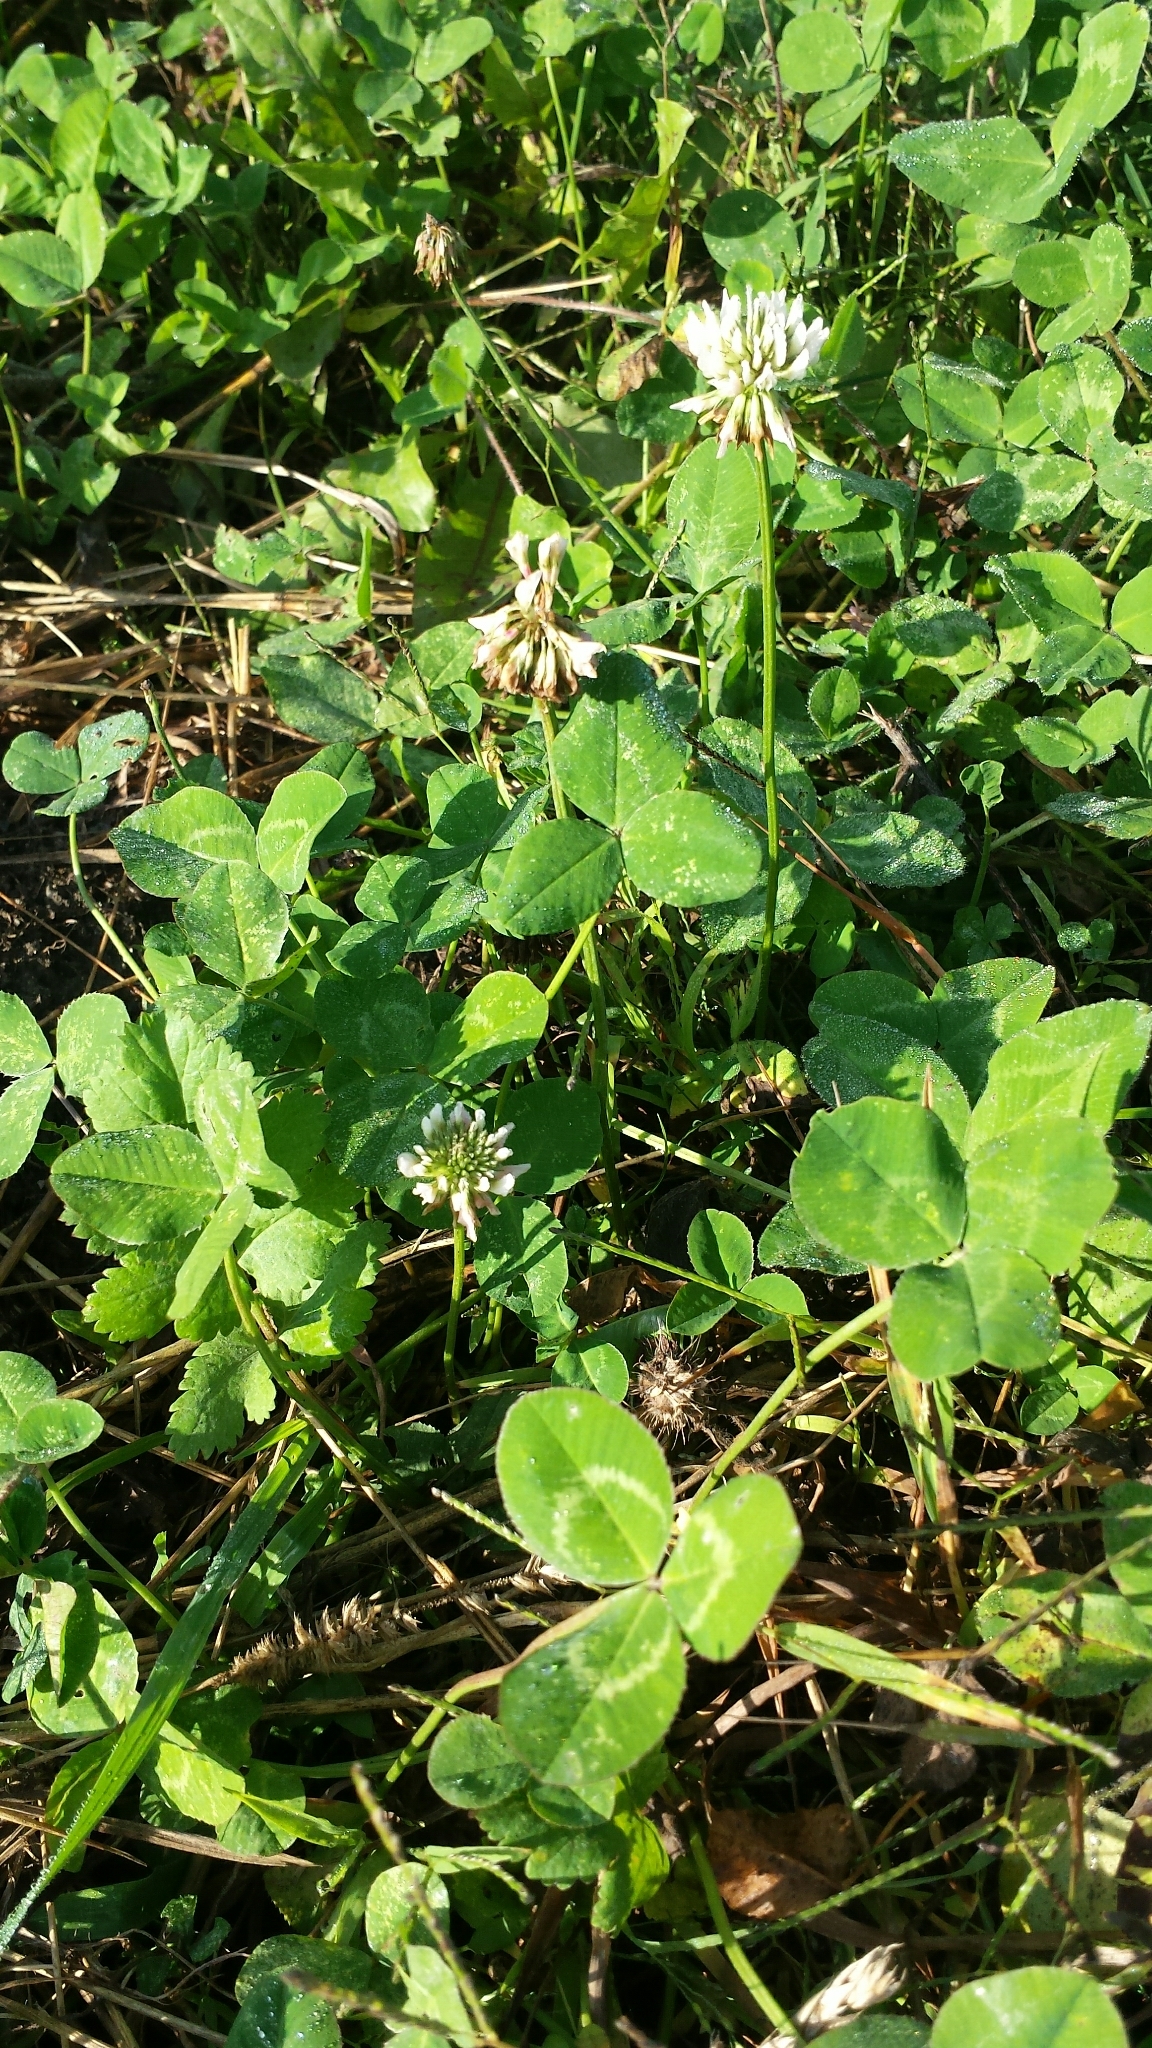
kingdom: Plantae
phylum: Tracheophyta
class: Magnoliopsida
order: Fabales
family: Fabaceae
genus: Trifolium
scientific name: Trifolium repens
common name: White clover
